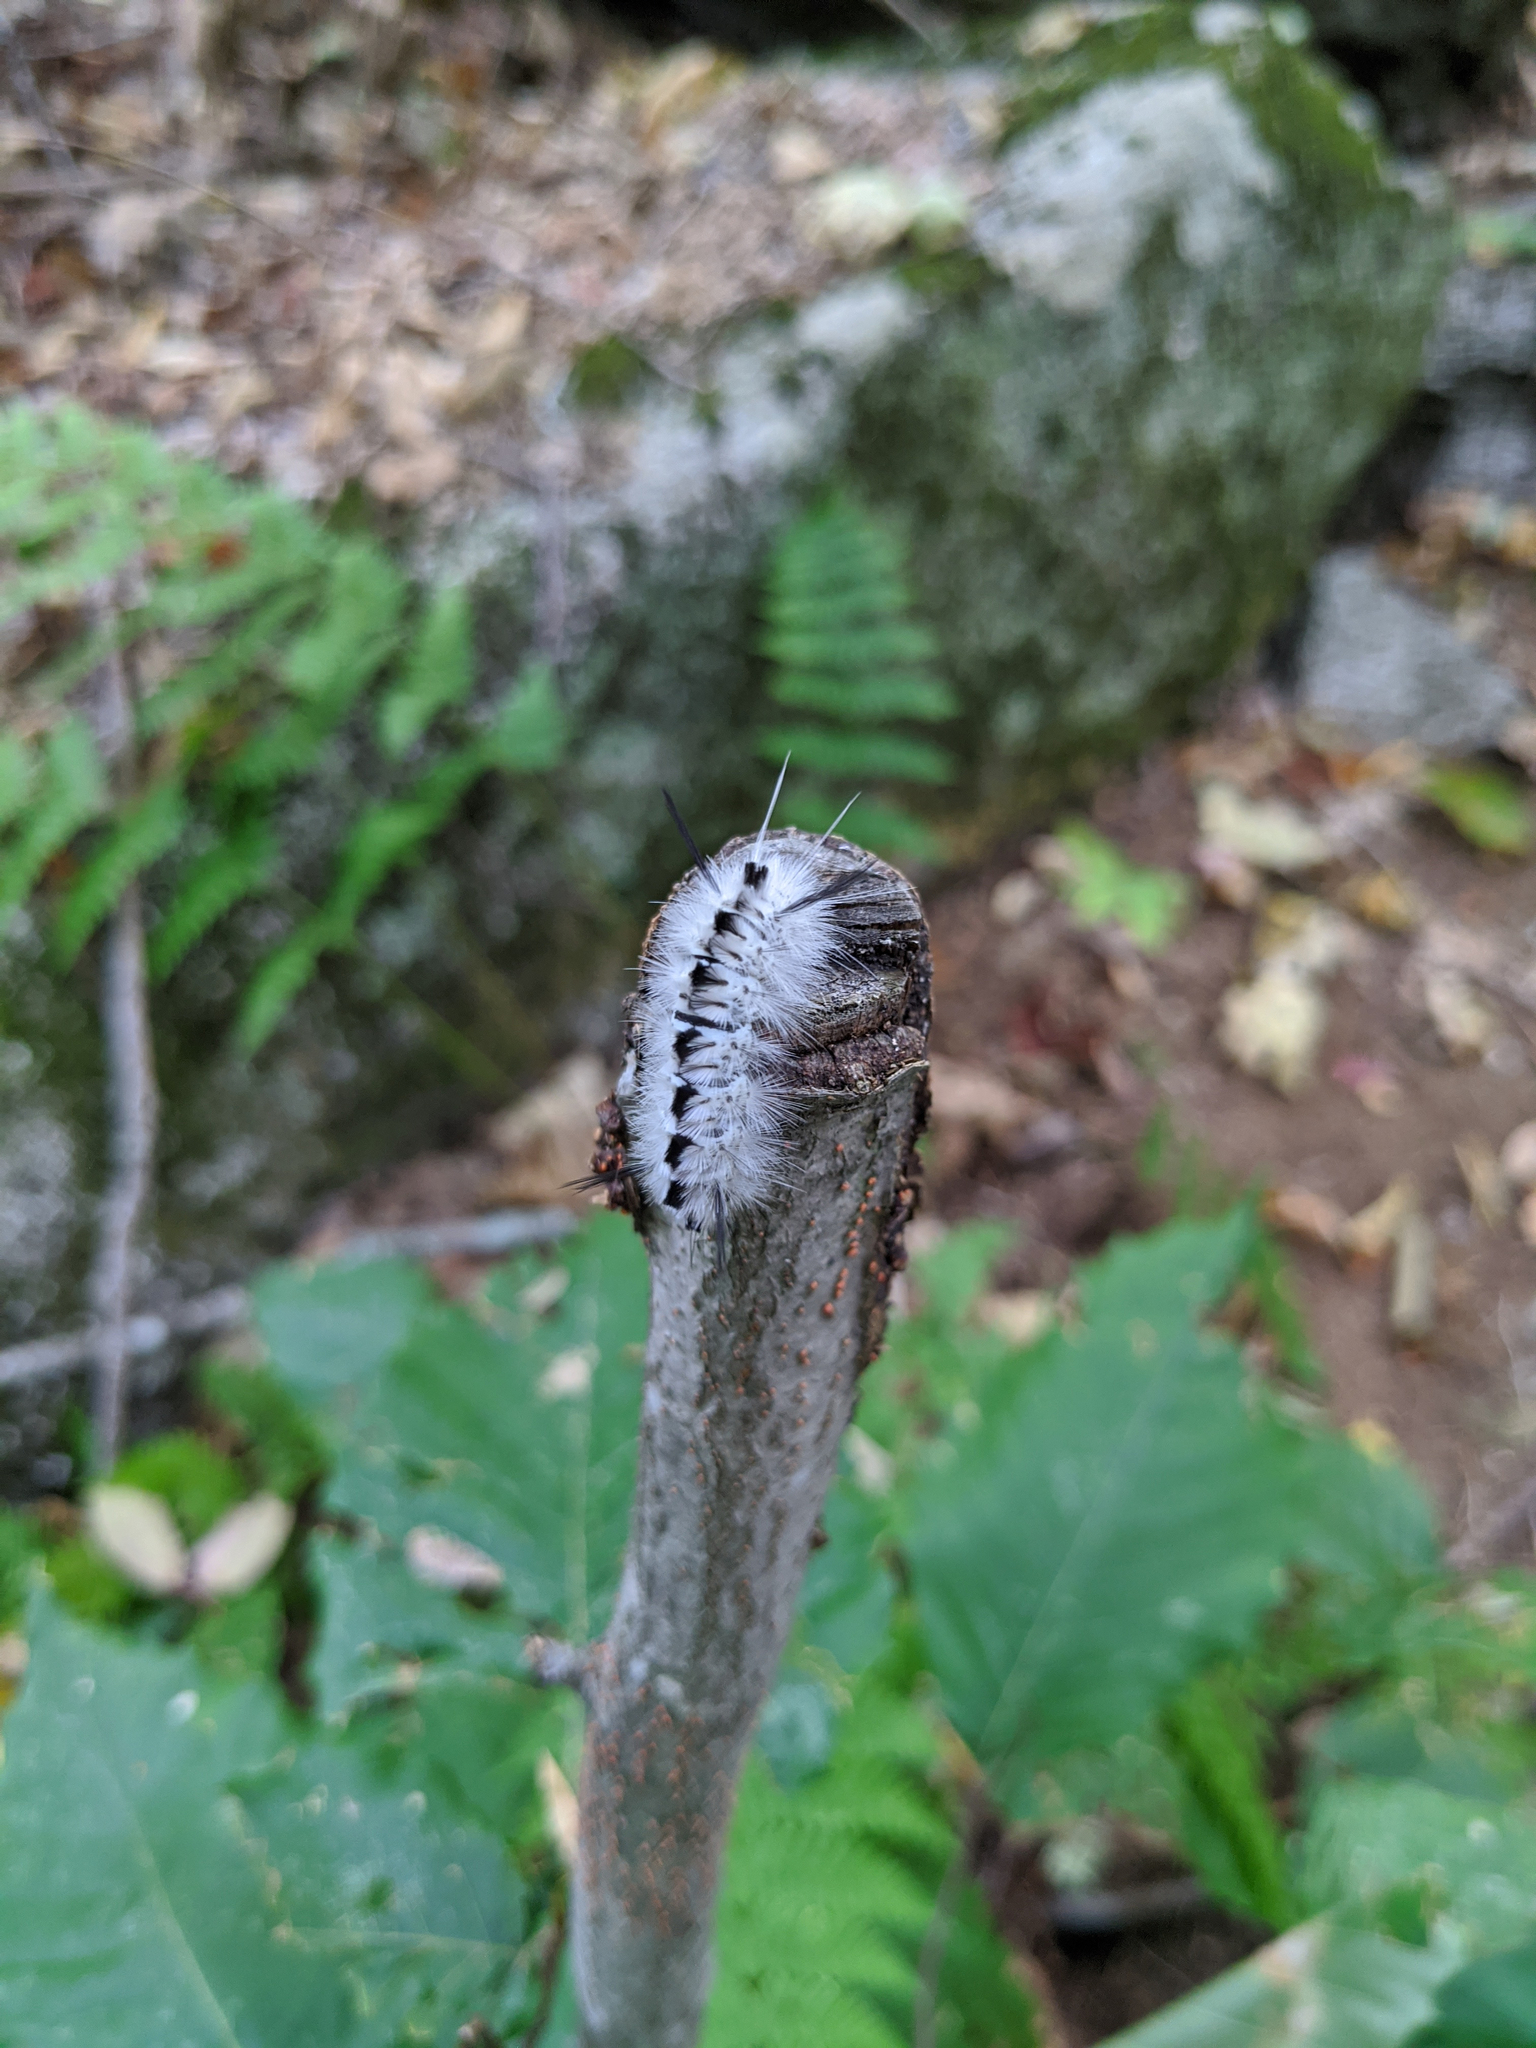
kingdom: Animalia
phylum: Arthropoda
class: Insecta
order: Lepidoptera
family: Erebidae
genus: Lophocampa
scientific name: Lophocampa caryae
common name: Hickory tussock moth
